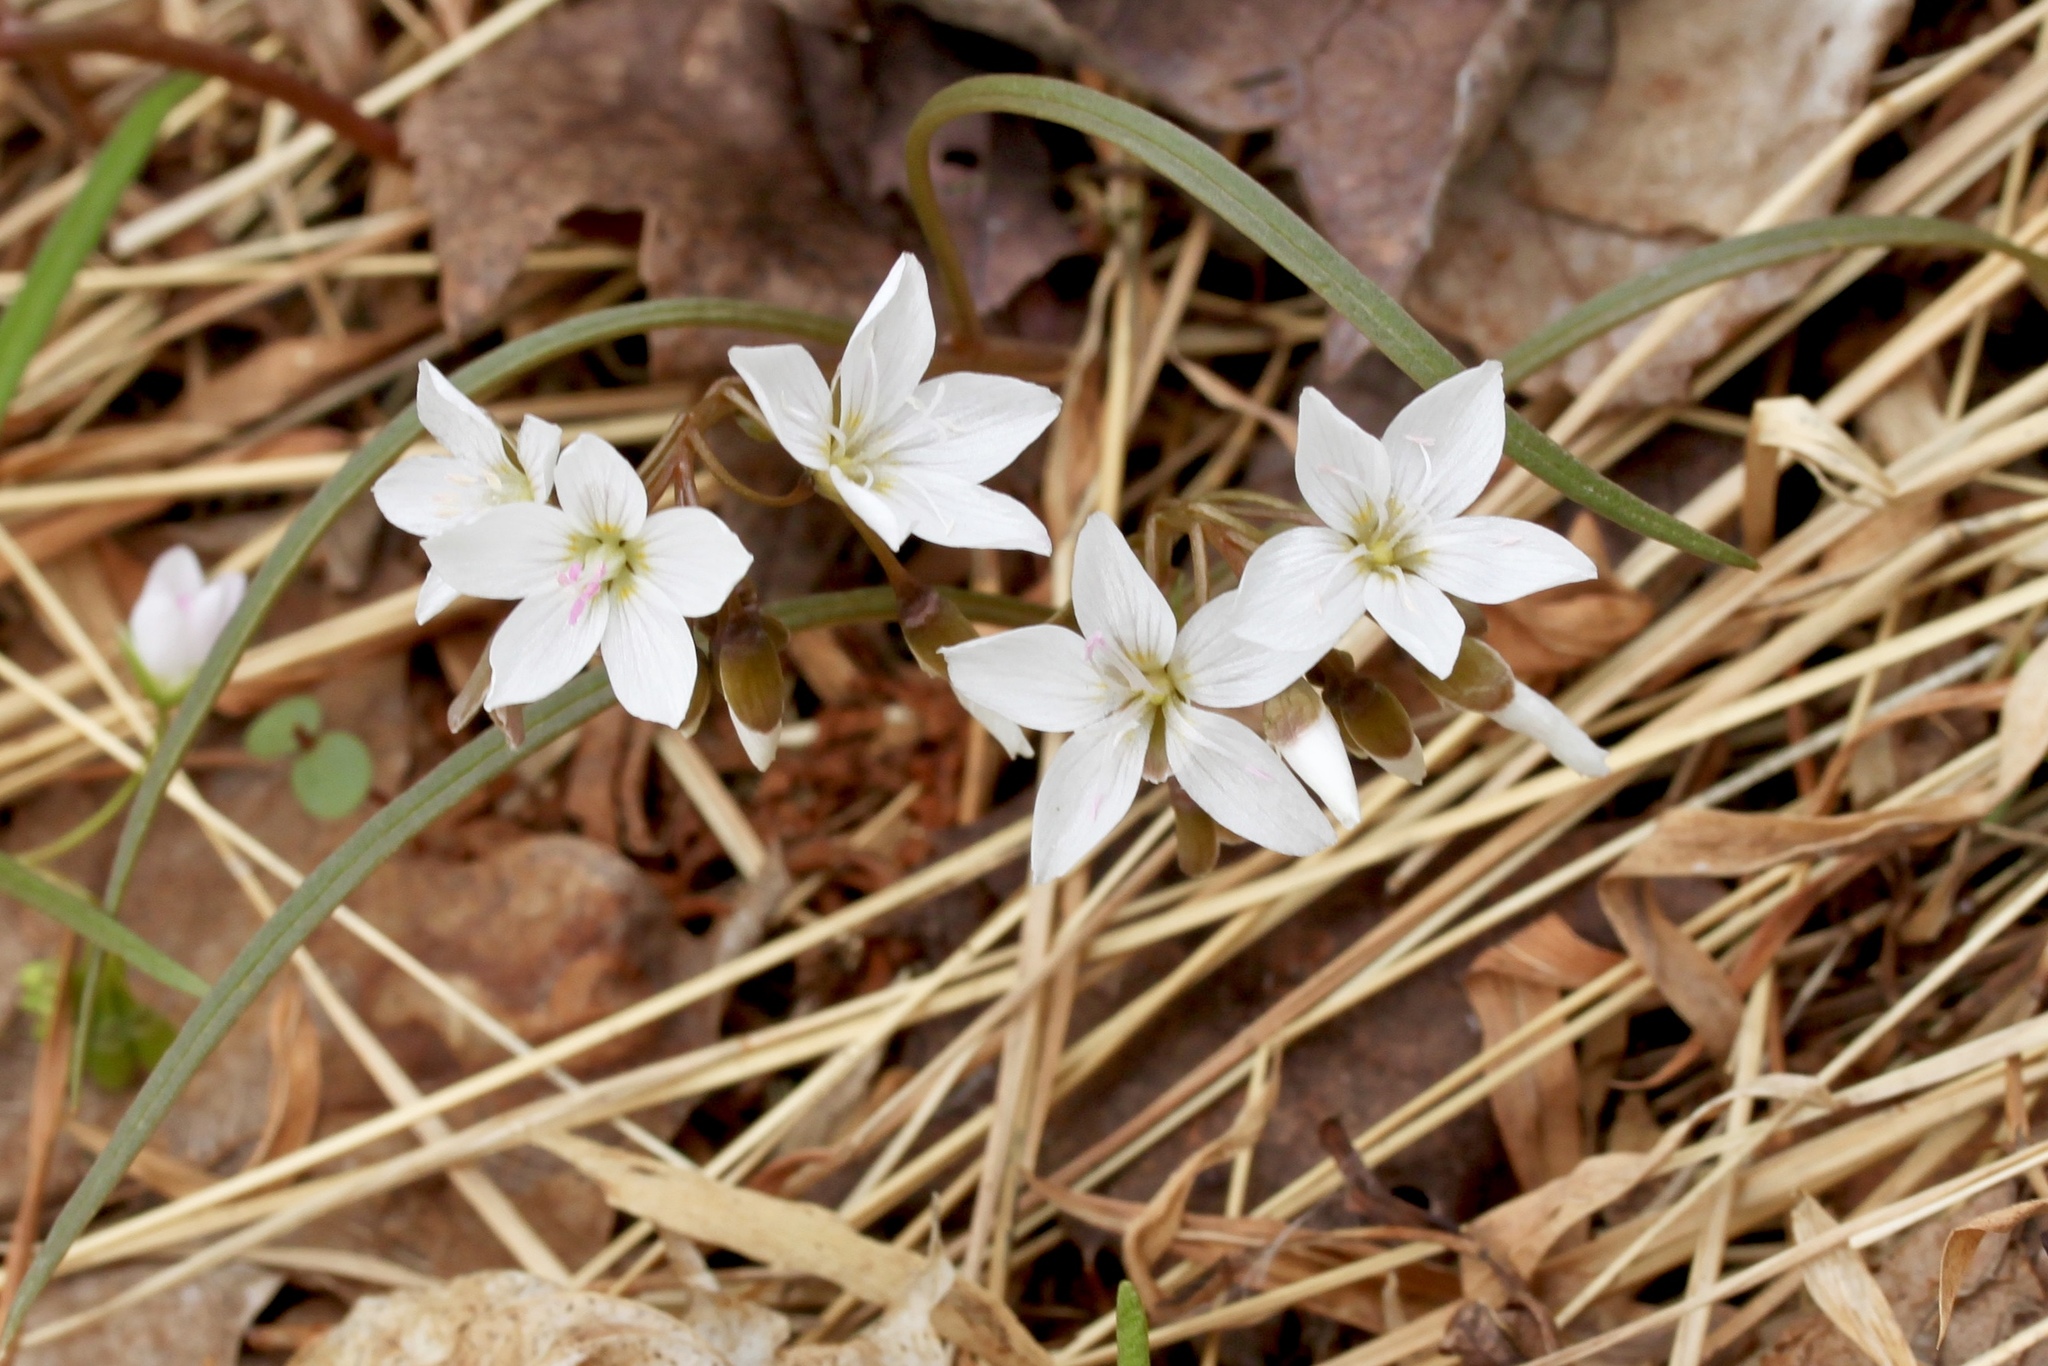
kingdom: Plantae
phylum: Tracheophyta
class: Magnoliopsida
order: Caryophyllales
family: Montiaceae
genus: Claytonia
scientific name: Claytonia virginica
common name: Virginia springbeauty
